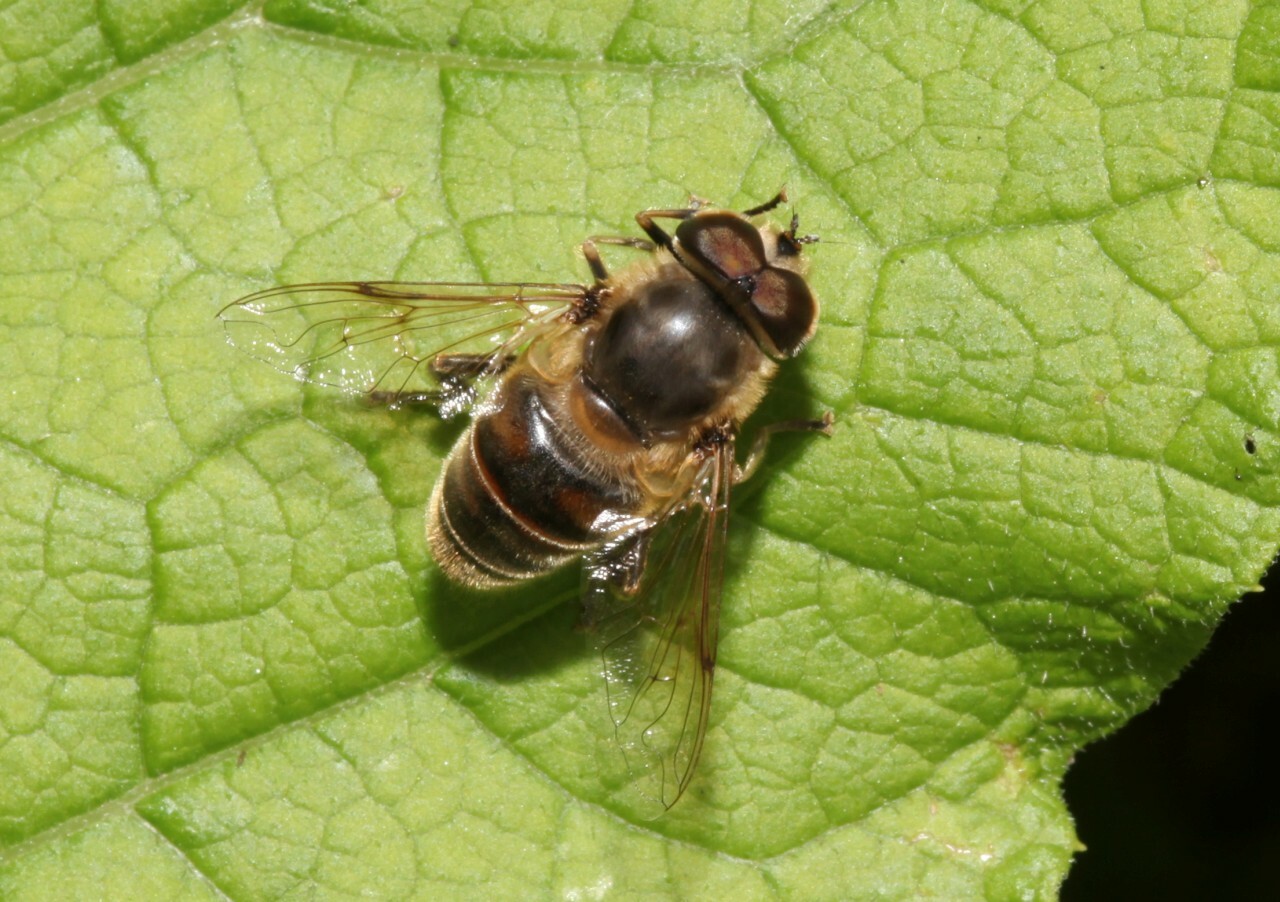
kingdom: Animalia
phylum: Arthropoda
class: Insecta
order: Diptera
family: Syrphidae
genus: Eristalis
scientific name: Eristalis tenax
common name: Drone fly
